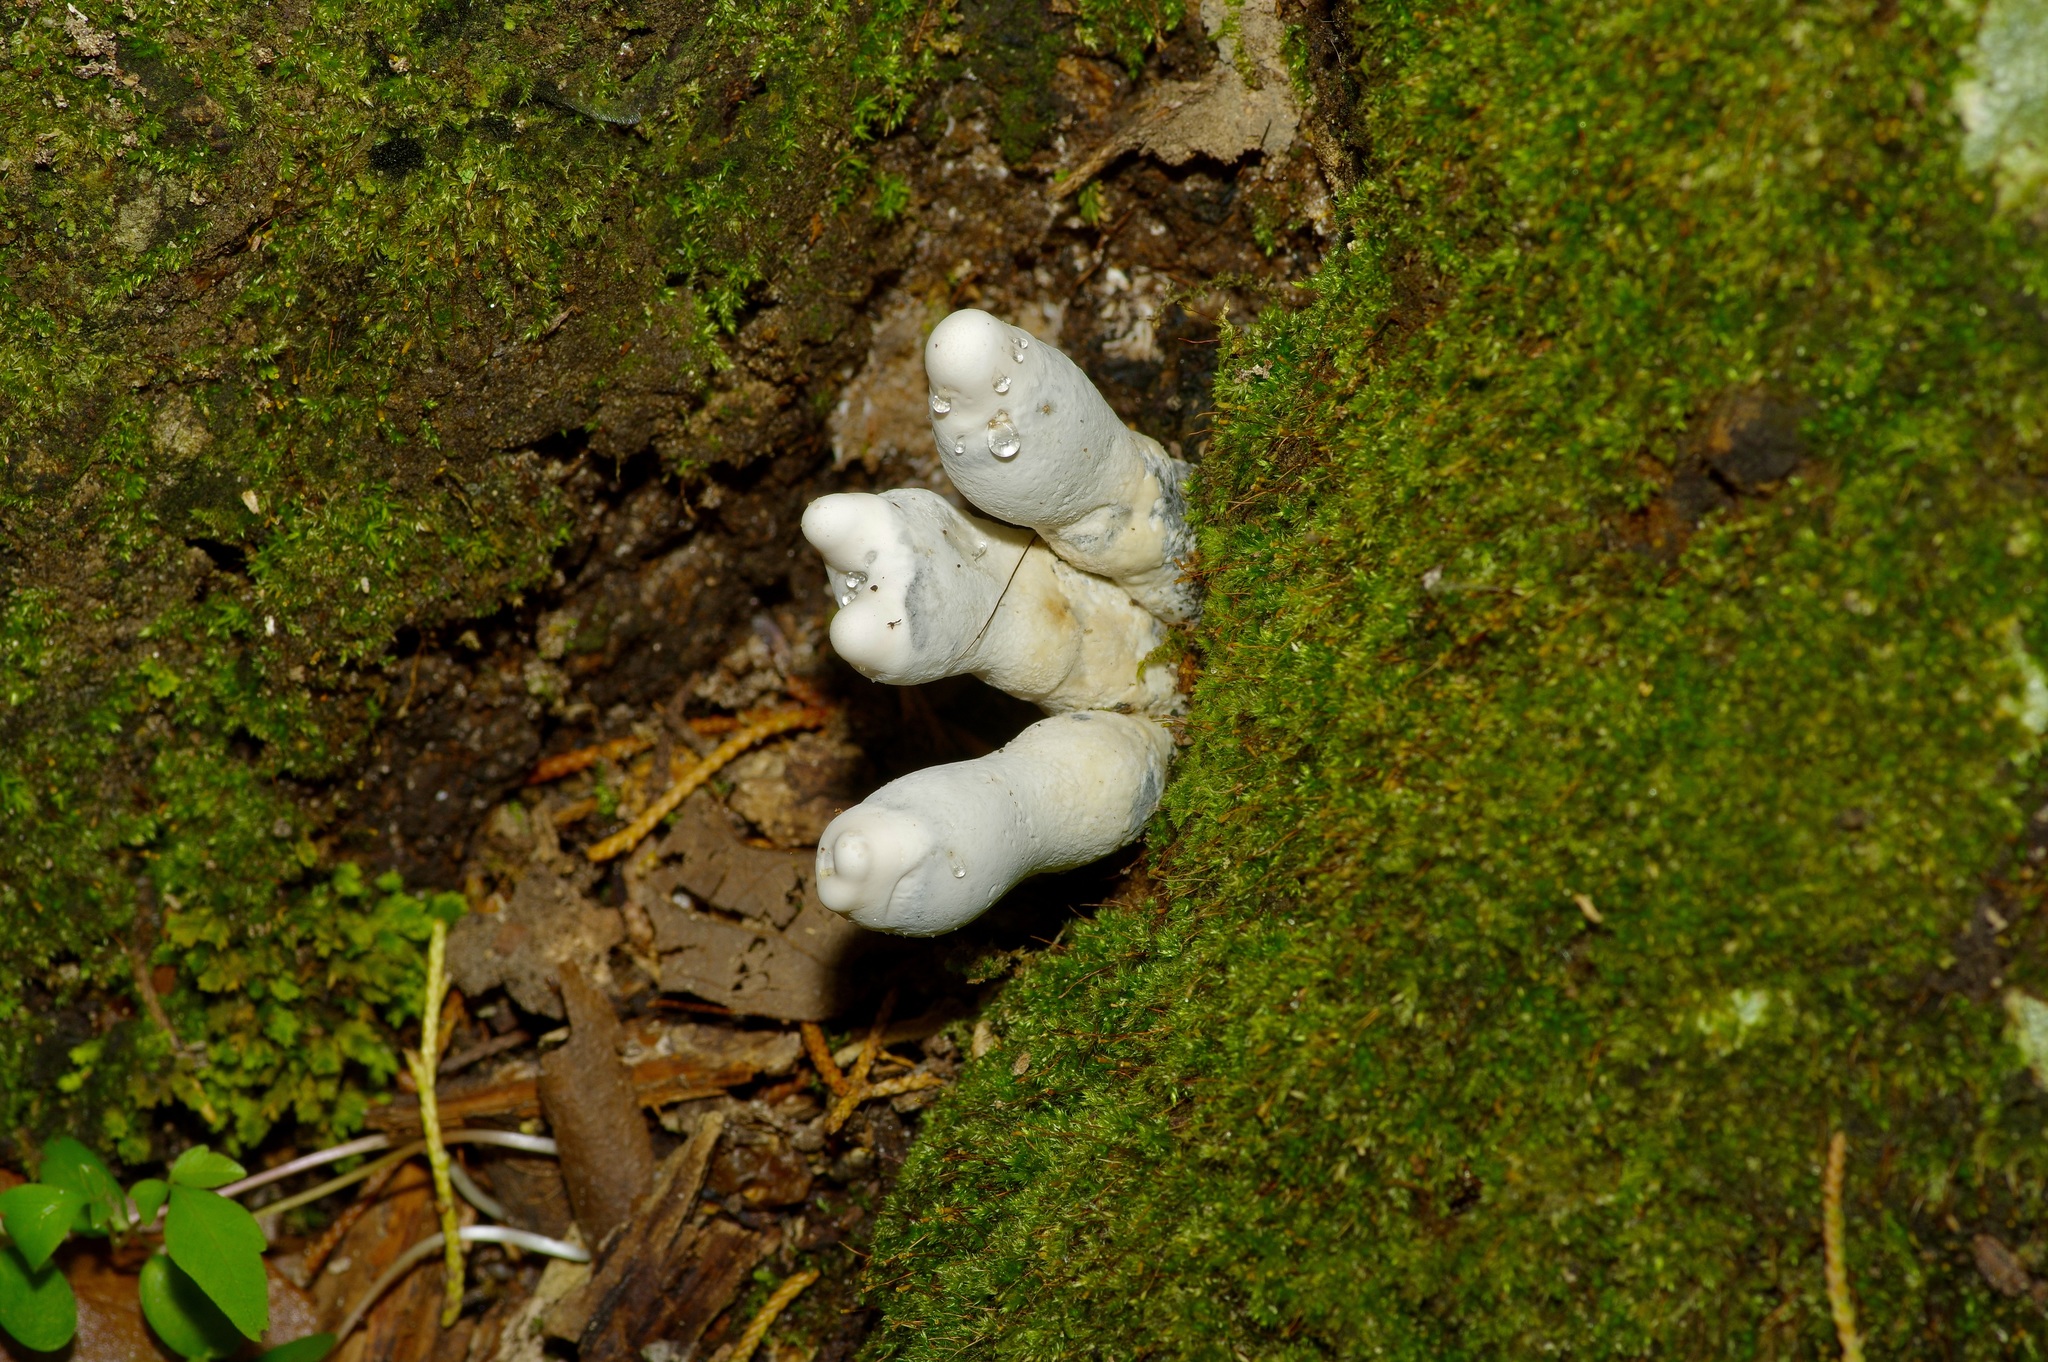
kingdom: Fungi
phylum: Ascomycota
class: Sordariomycetes
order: Xylariales
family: Xylariaceae
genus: Xylaria
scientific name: Xylaria polymorpha
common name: Dead man's fingers
